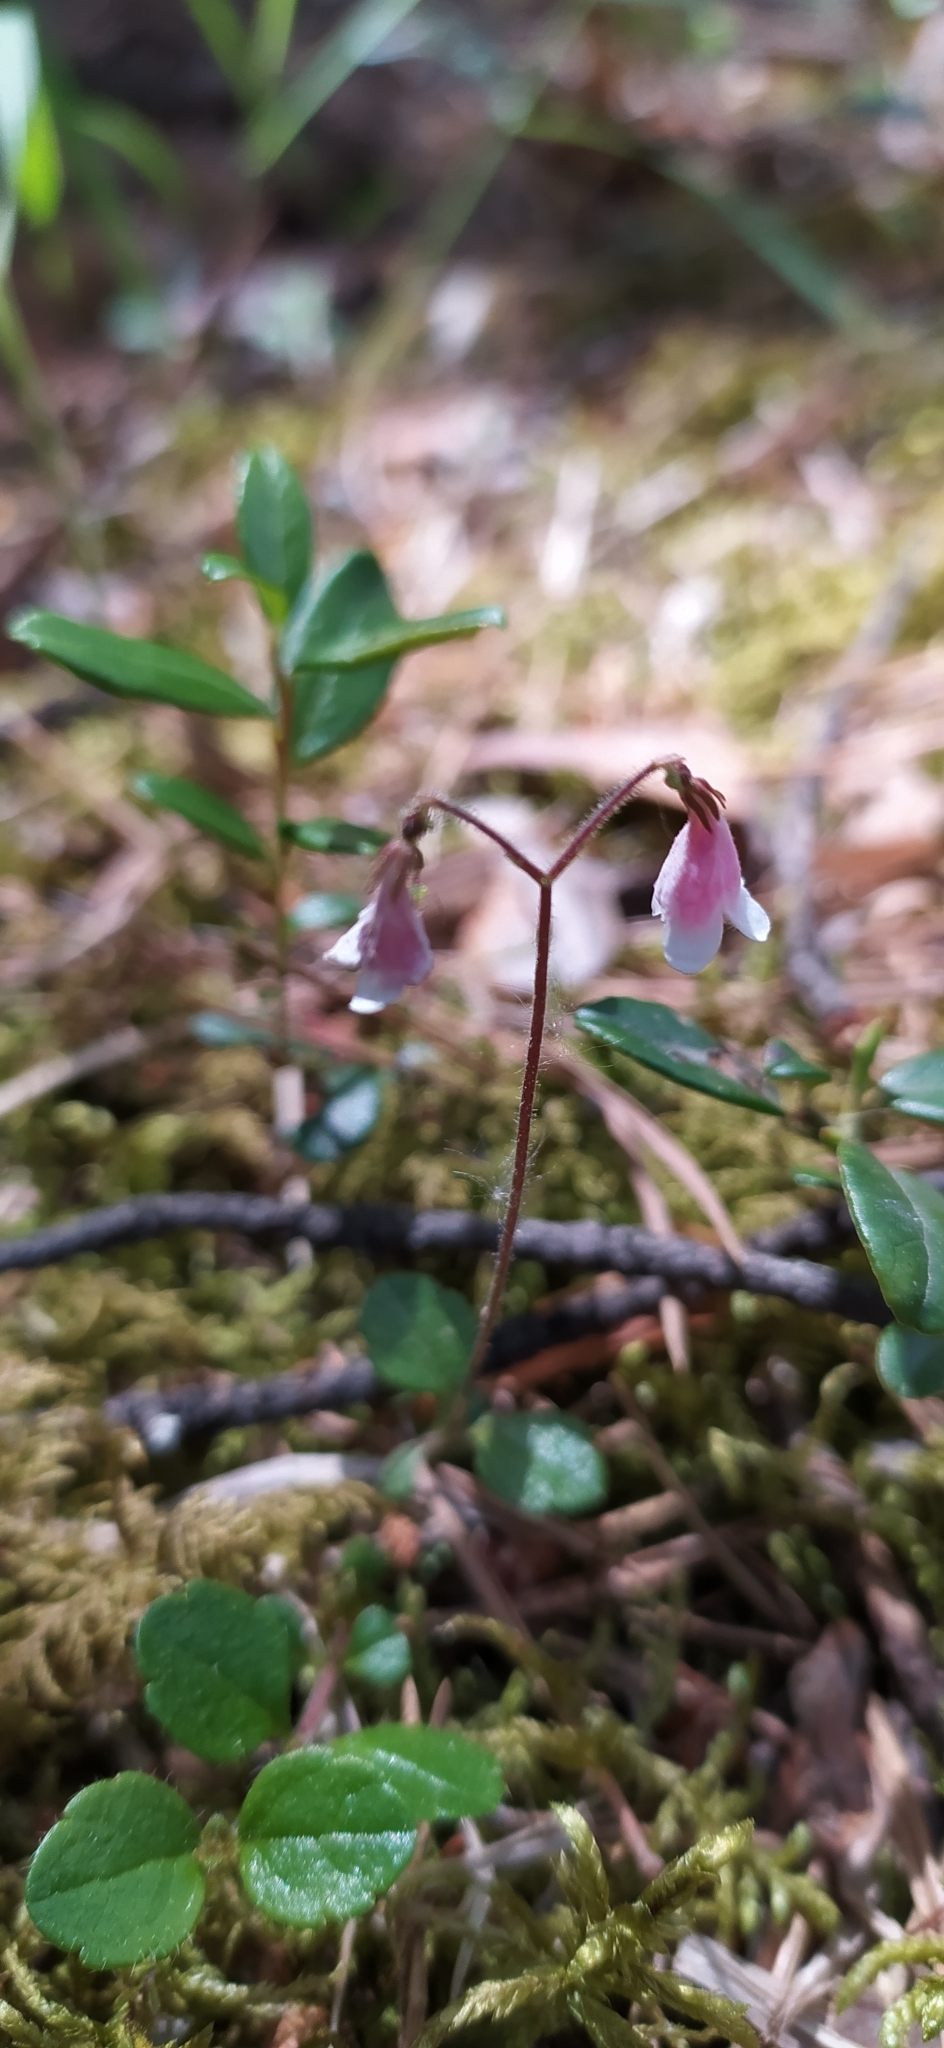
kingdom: Plantae
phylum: Tracheophyta
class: Magnoliopsida
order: Dipsacales
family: Caprifoliaceae
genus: Linnaea
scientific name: Linnaea borealis
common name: Twinflower
